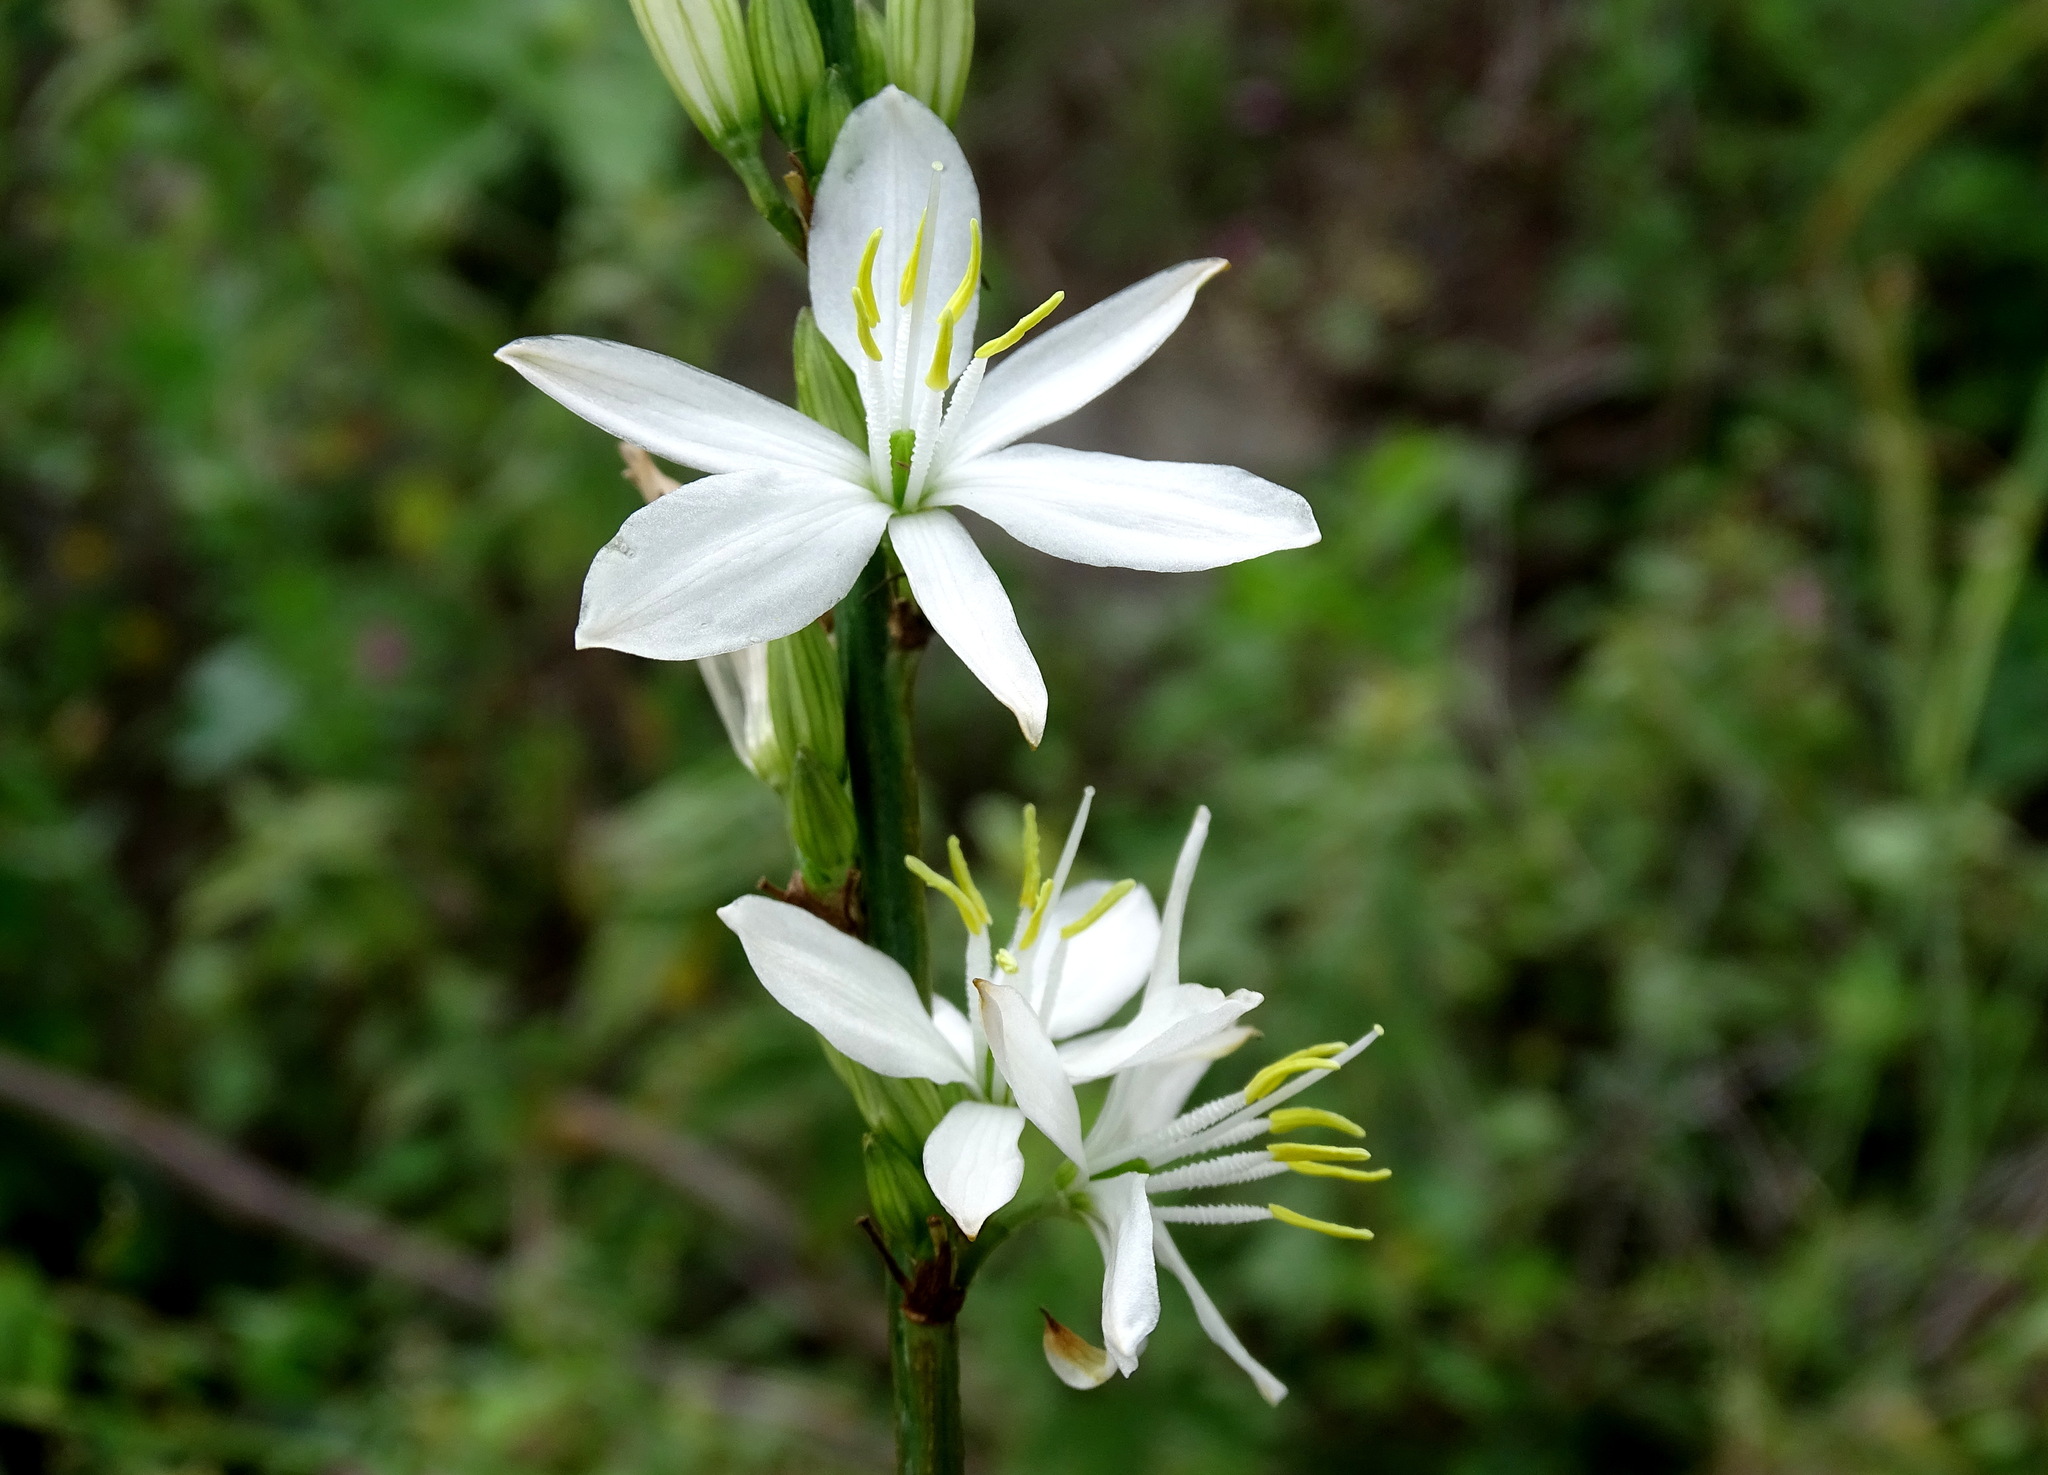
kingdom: Plantae
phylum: Tracheophyta
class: Liliopsida
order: Asparagales
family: Asparagaceae
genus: Echeandia
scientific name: Echeandia cholulensis
